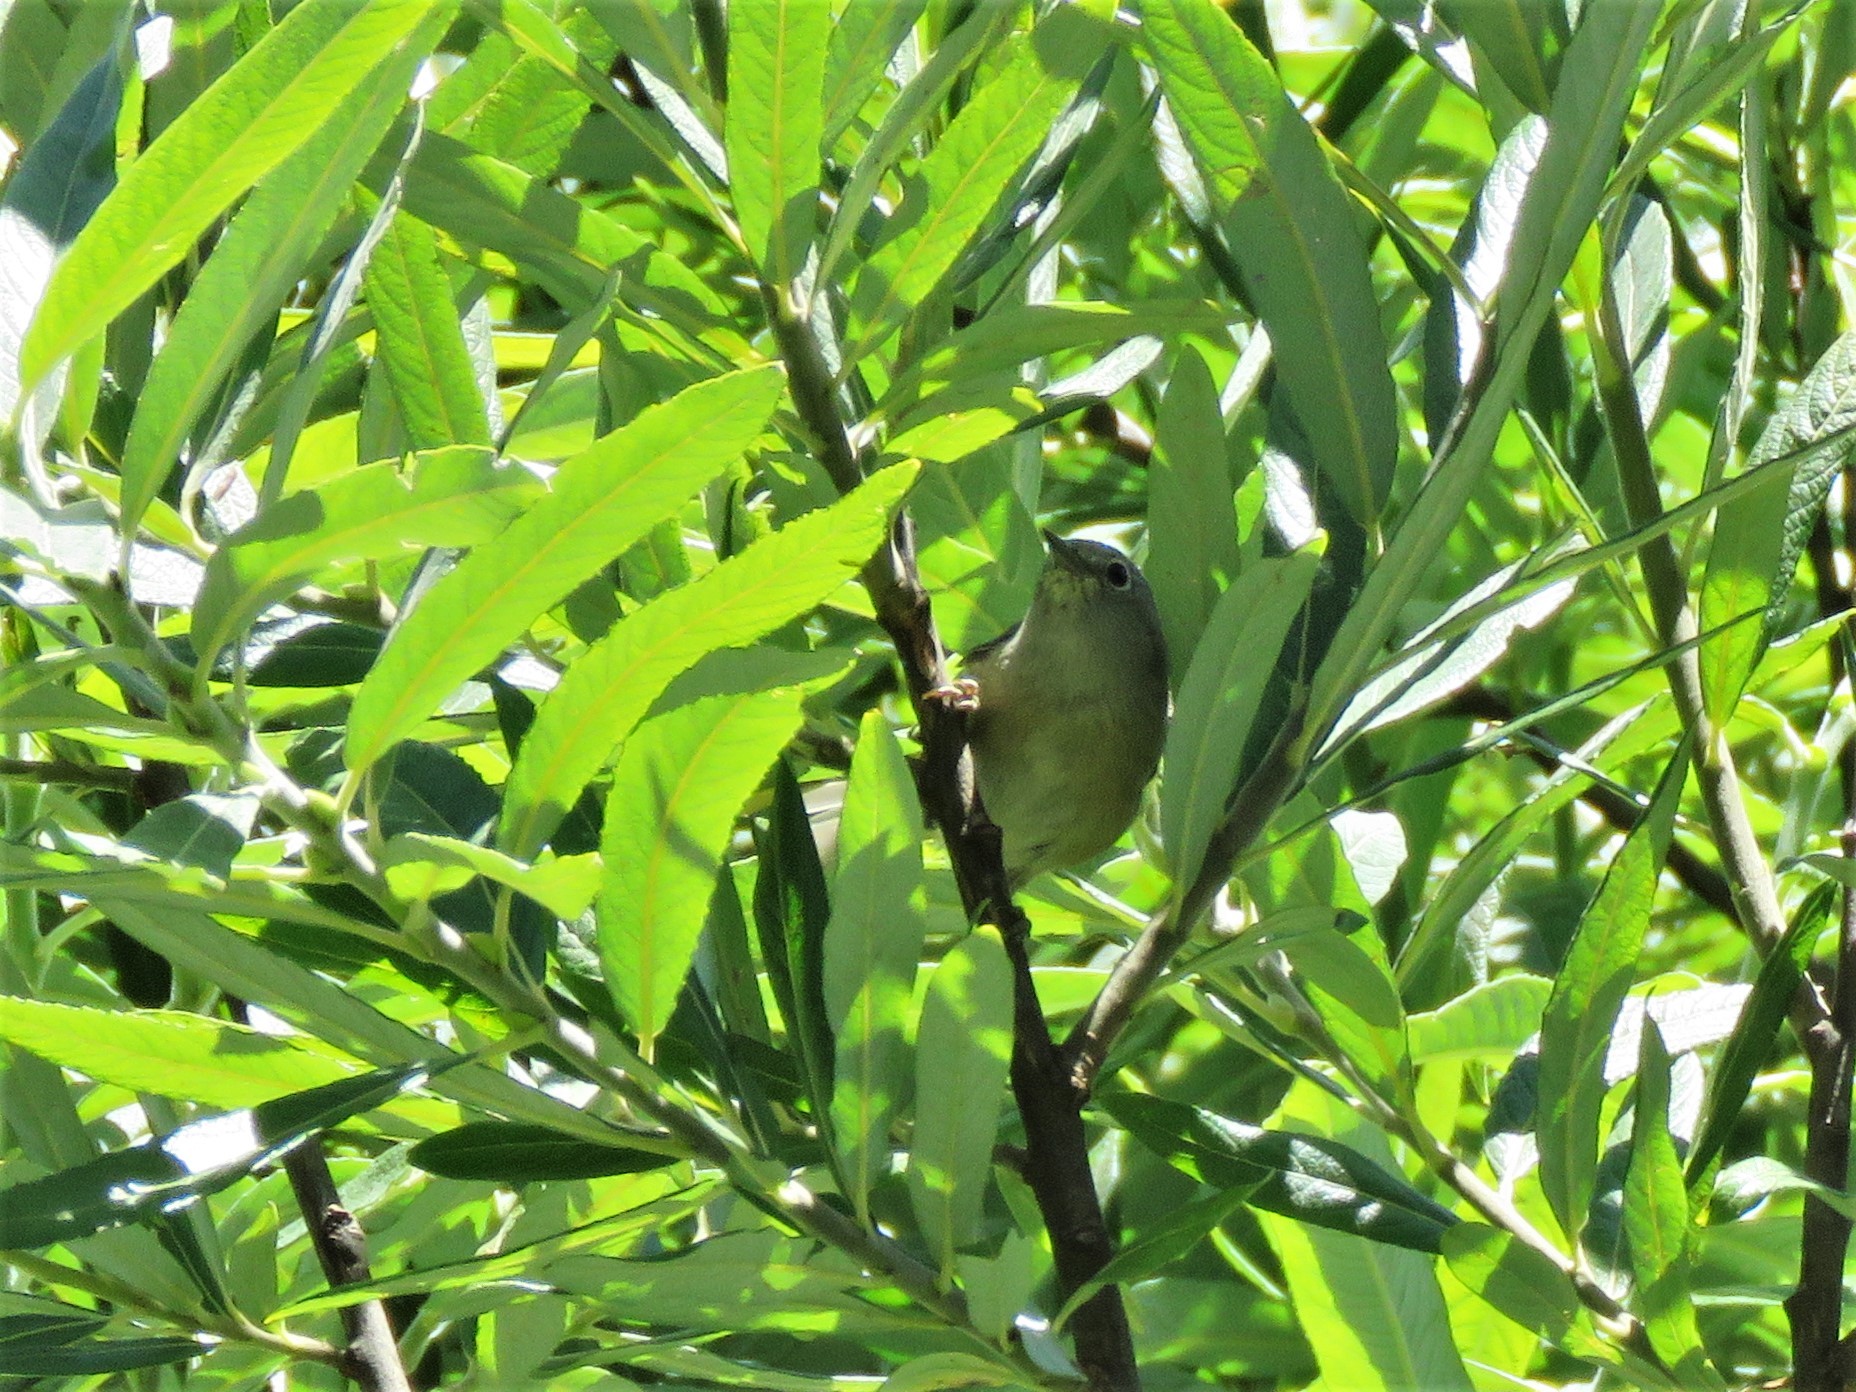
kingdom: Animalia
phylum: Chordata
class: Aves
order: Passeriformes
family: Parulidae
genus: Leiothlypis
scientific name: Leiothlypis crissalis
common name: Colima warbler
